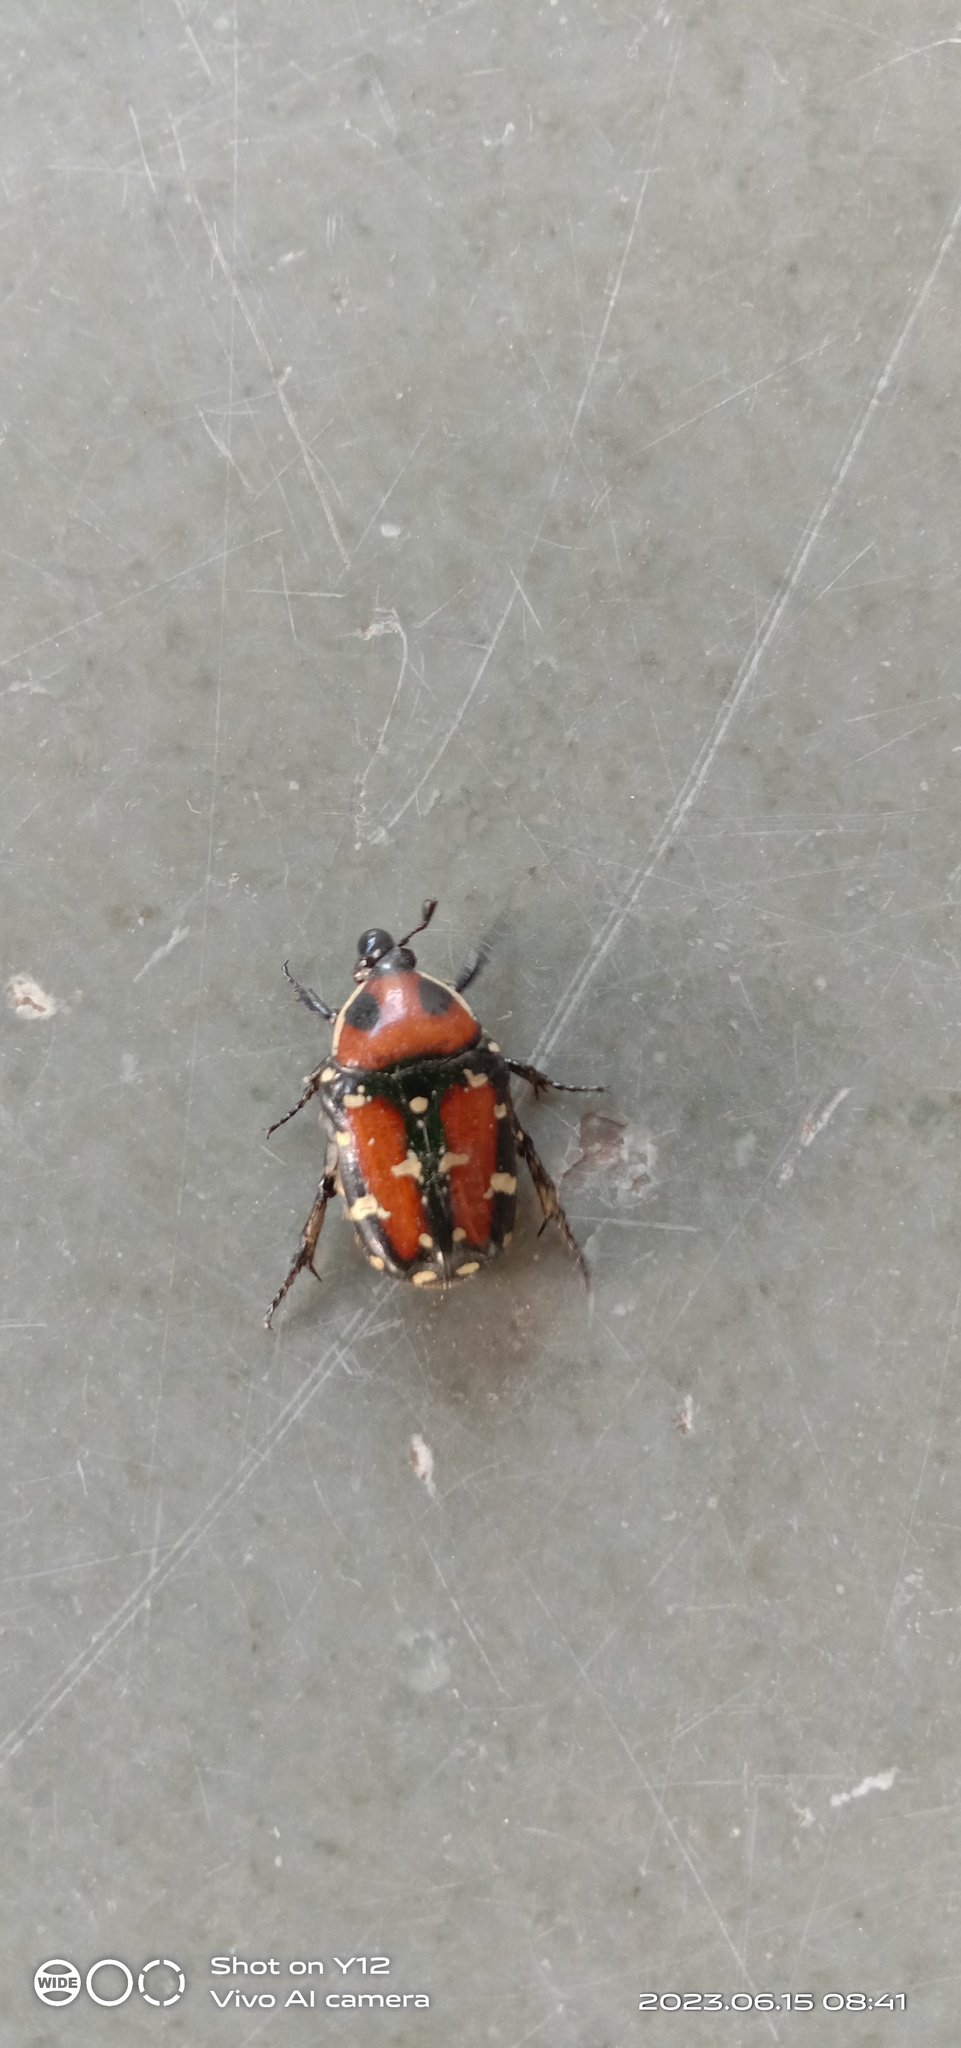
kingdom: Animalia
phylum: Arthropoda
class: Insecta
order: Coleoptera
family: Scarabaeidae
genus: Gametis
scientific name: Gametis versicolor
